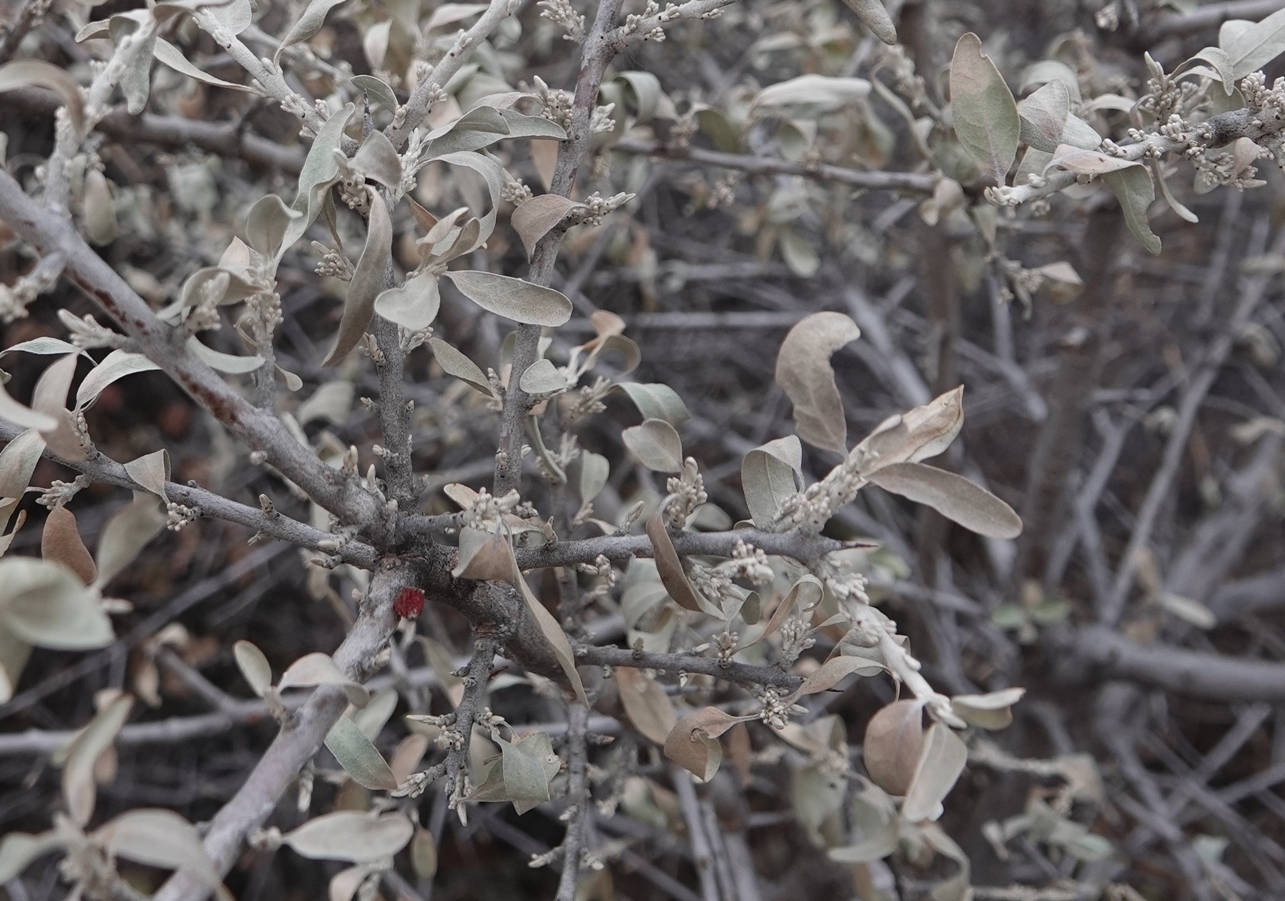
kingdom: Plantae
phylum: Tracheophyta
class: Magnoliopsida
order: Rosales
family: Elaeagnaceae
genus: Shepherdia
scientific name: Shepherdia argentea
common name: Silver buffaloberry
